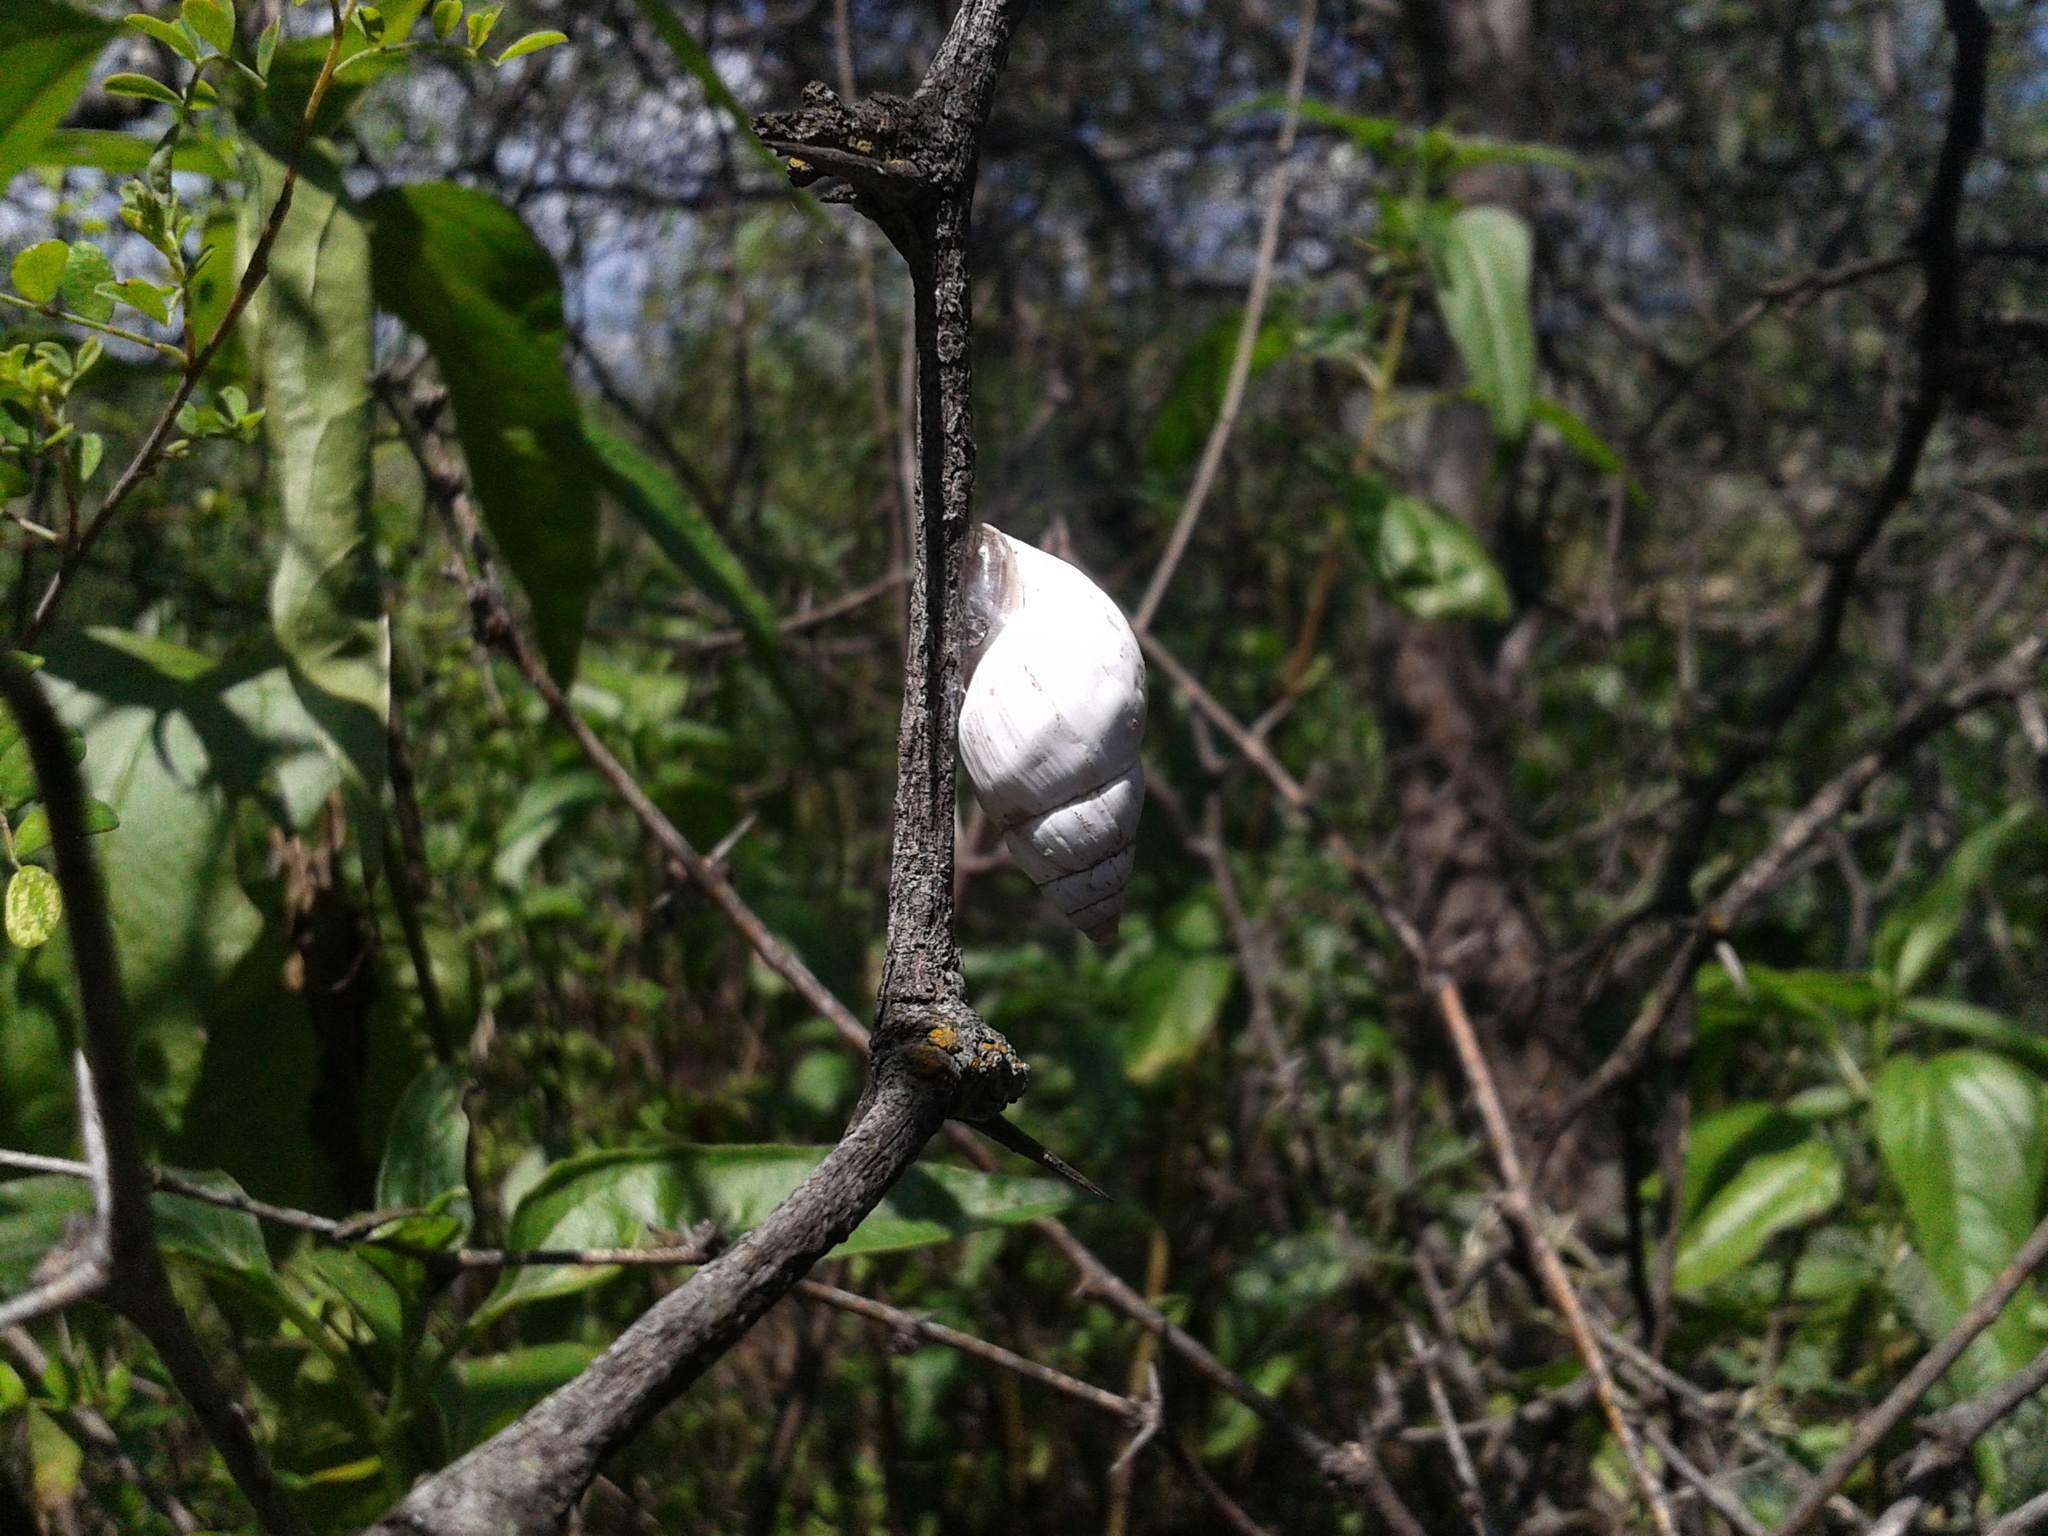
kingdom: Animalia
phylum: Mollusca
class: Gastropoda
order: Stylommatophora
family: Bulimulidae
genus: Rabdotus
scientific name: Rabdotus schiedeanus
